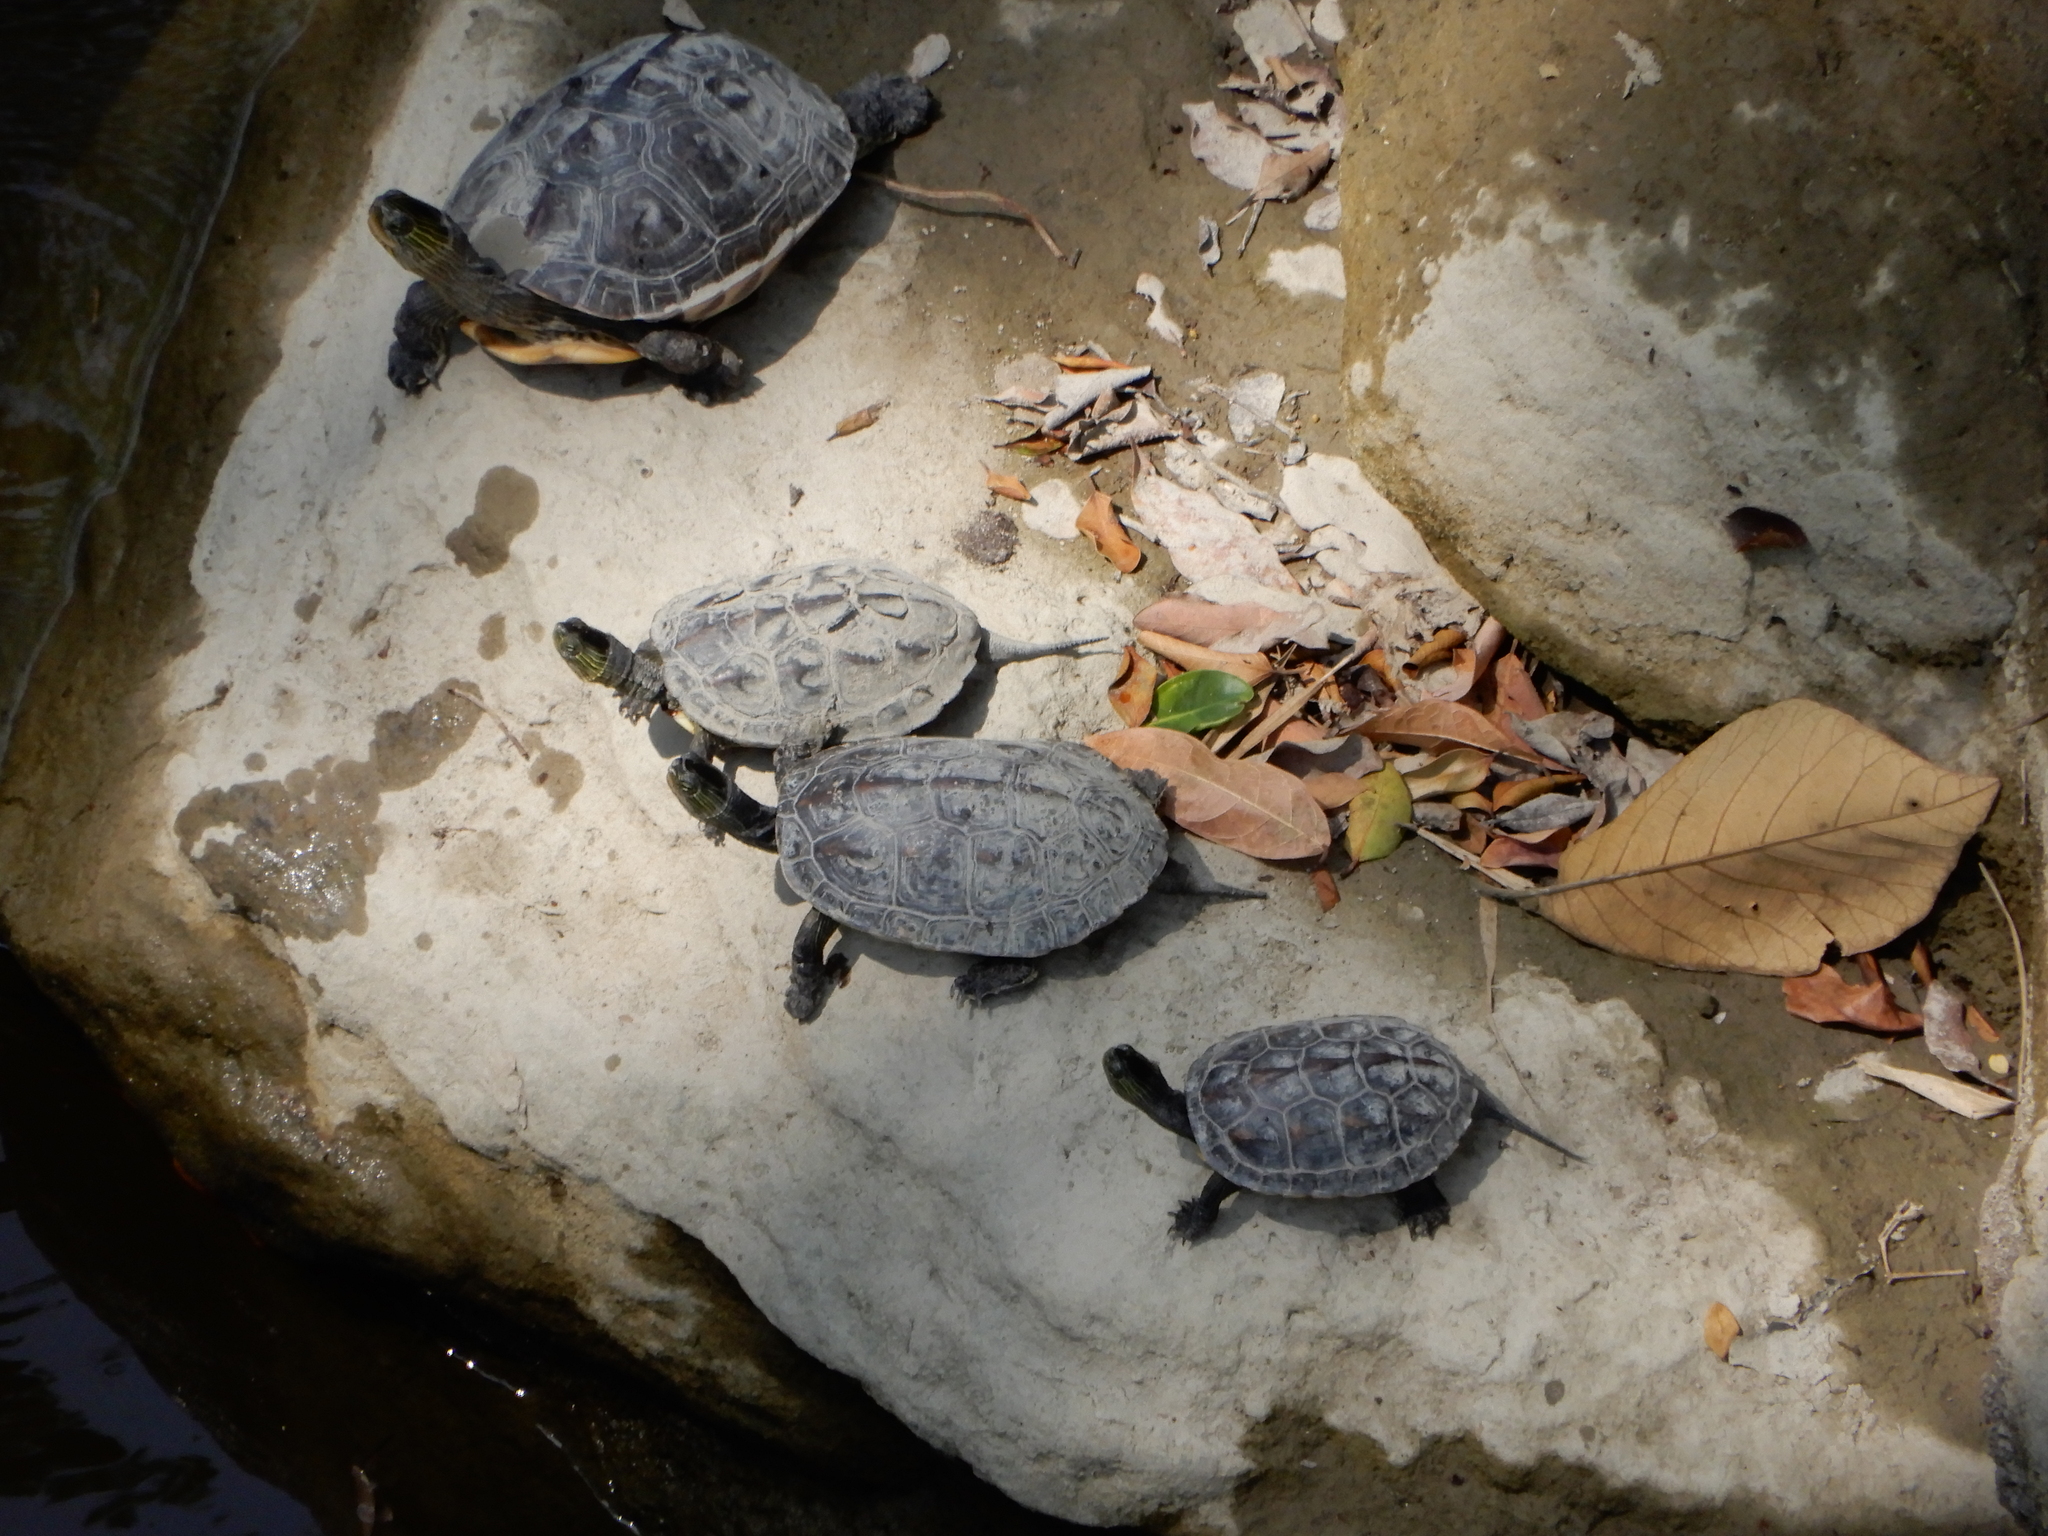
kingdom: Animalia
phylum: Chordata
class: Testudines
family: Geoemydidae
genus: Mauremys
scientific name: Mauremys sinensis
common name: Chinese stripe-necked turtle
